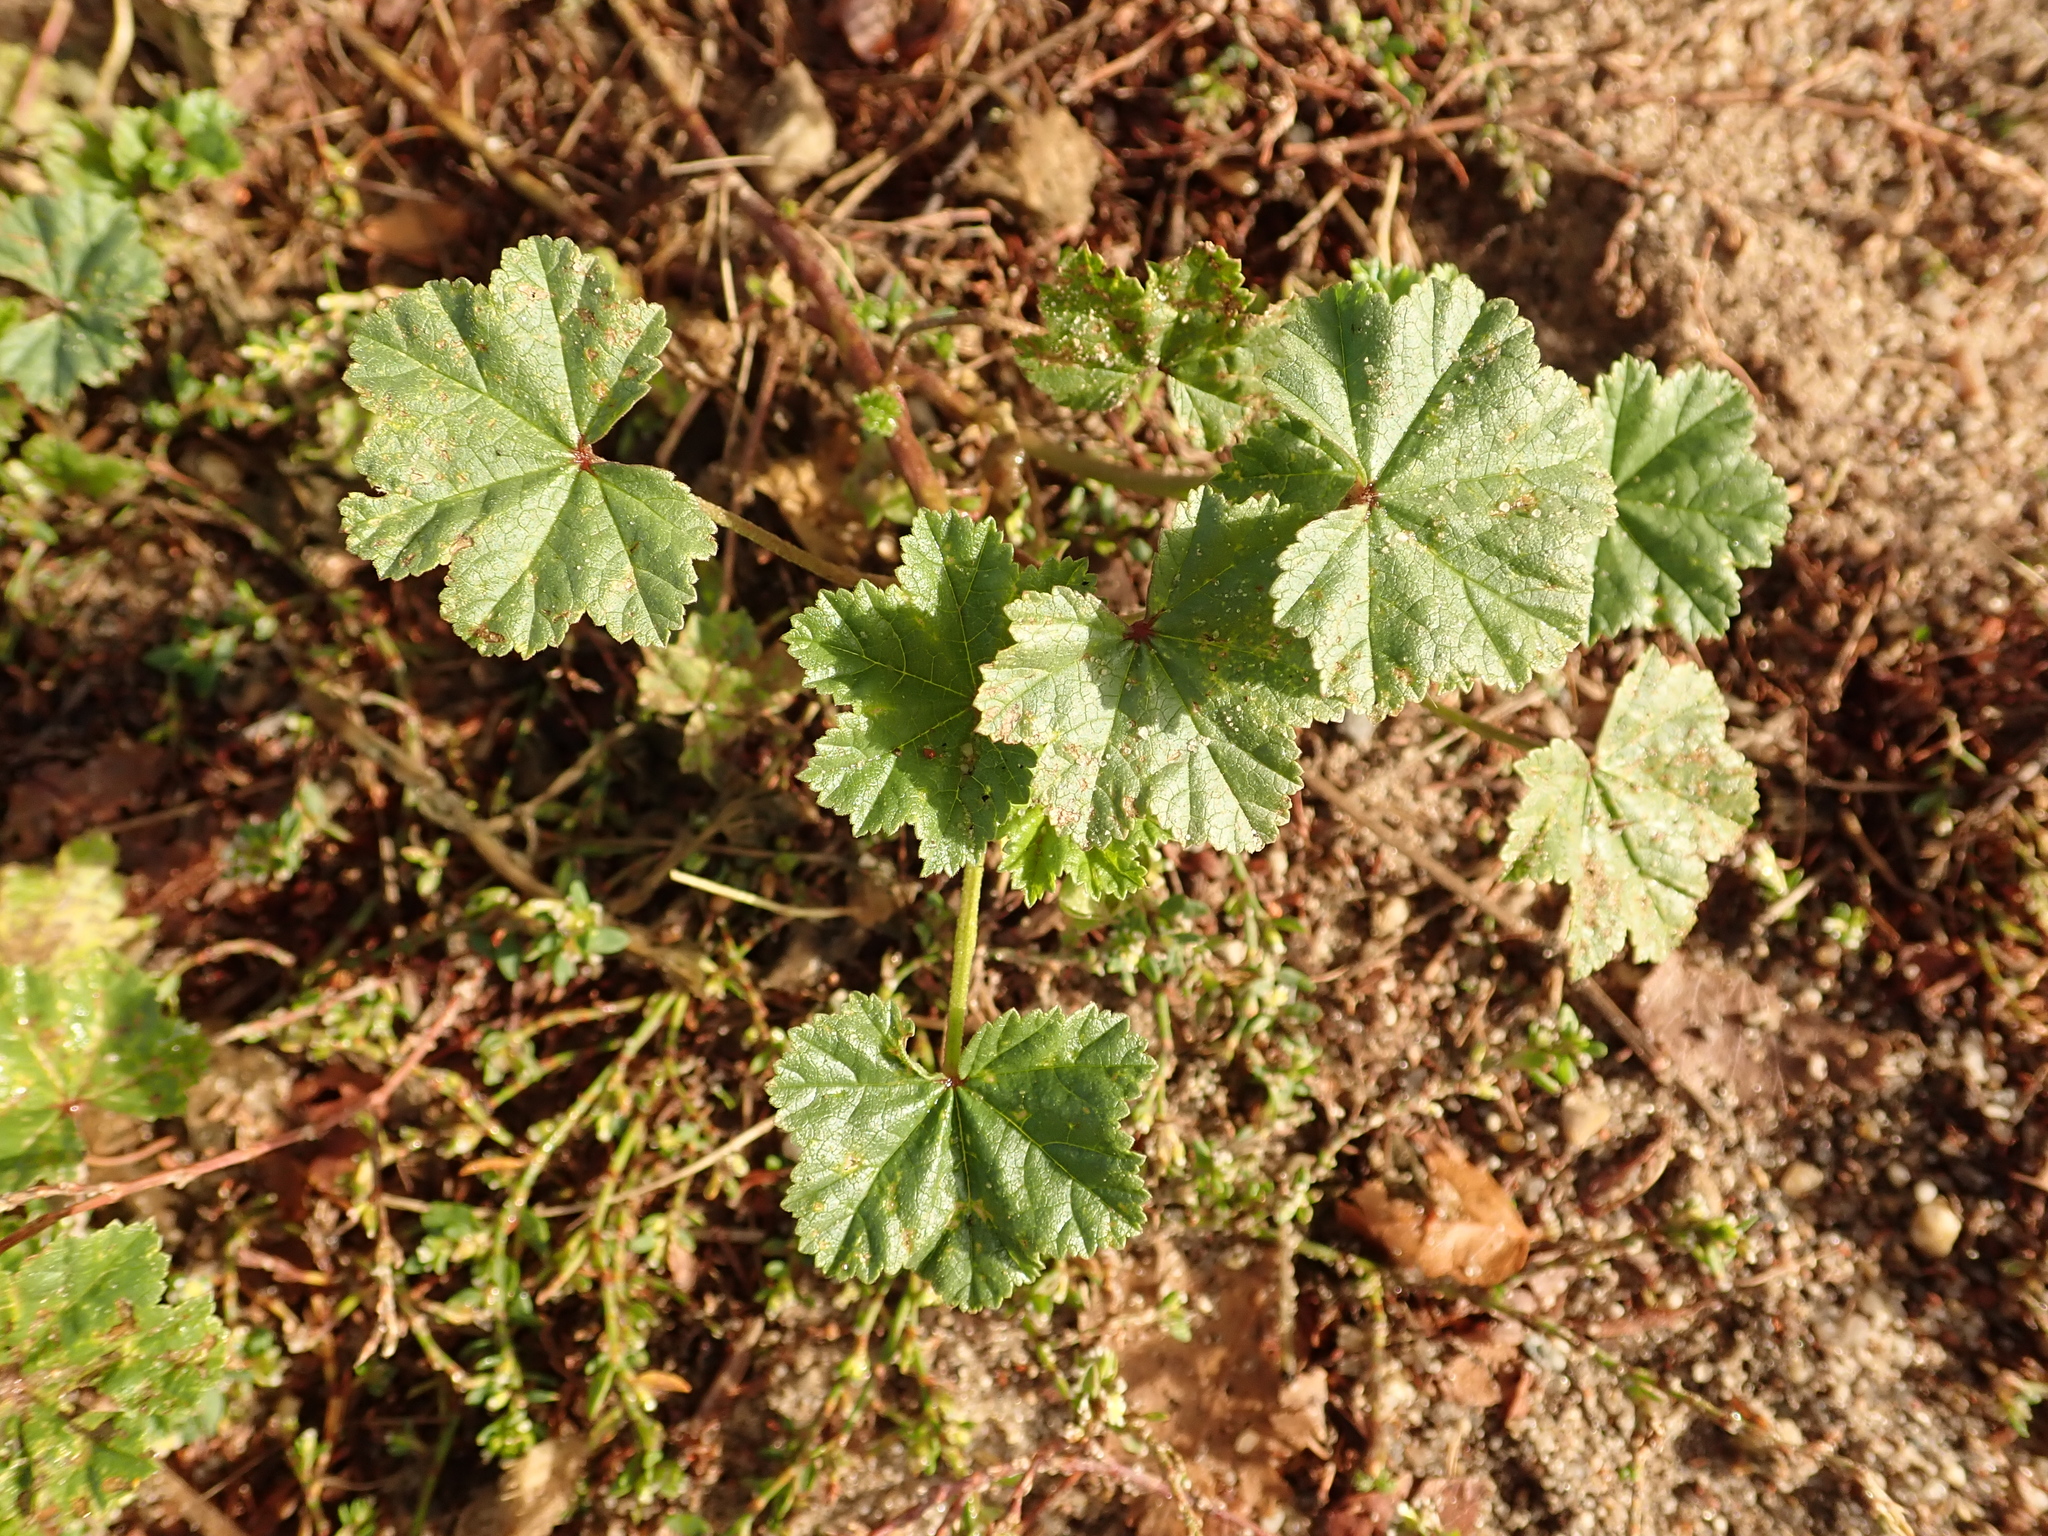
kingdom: Plantae
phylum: Tracheophyta
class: Magnoliopsida
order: Malvales
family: Malvaceae
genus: Malva
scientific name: Malva neglecta
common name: Common mallow
